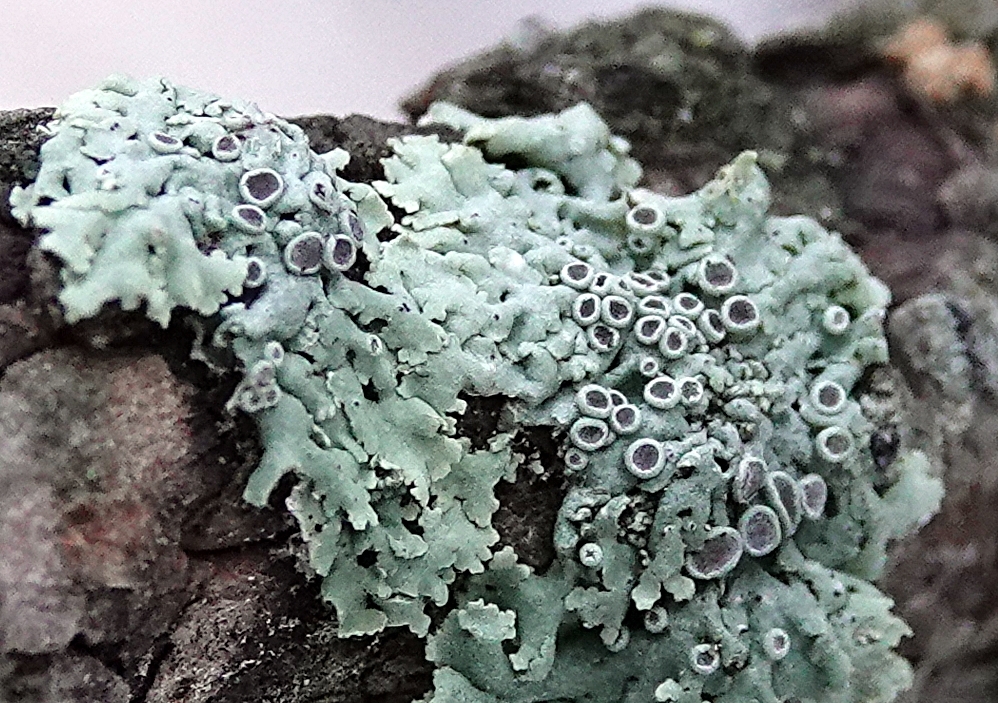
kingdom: Fungi
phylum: Ascomycota
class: Lecanoromycetes
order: Caliciales
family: Physciaceae
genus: Physcia
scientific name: Physcia stellaris
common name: Star rosette lichen
